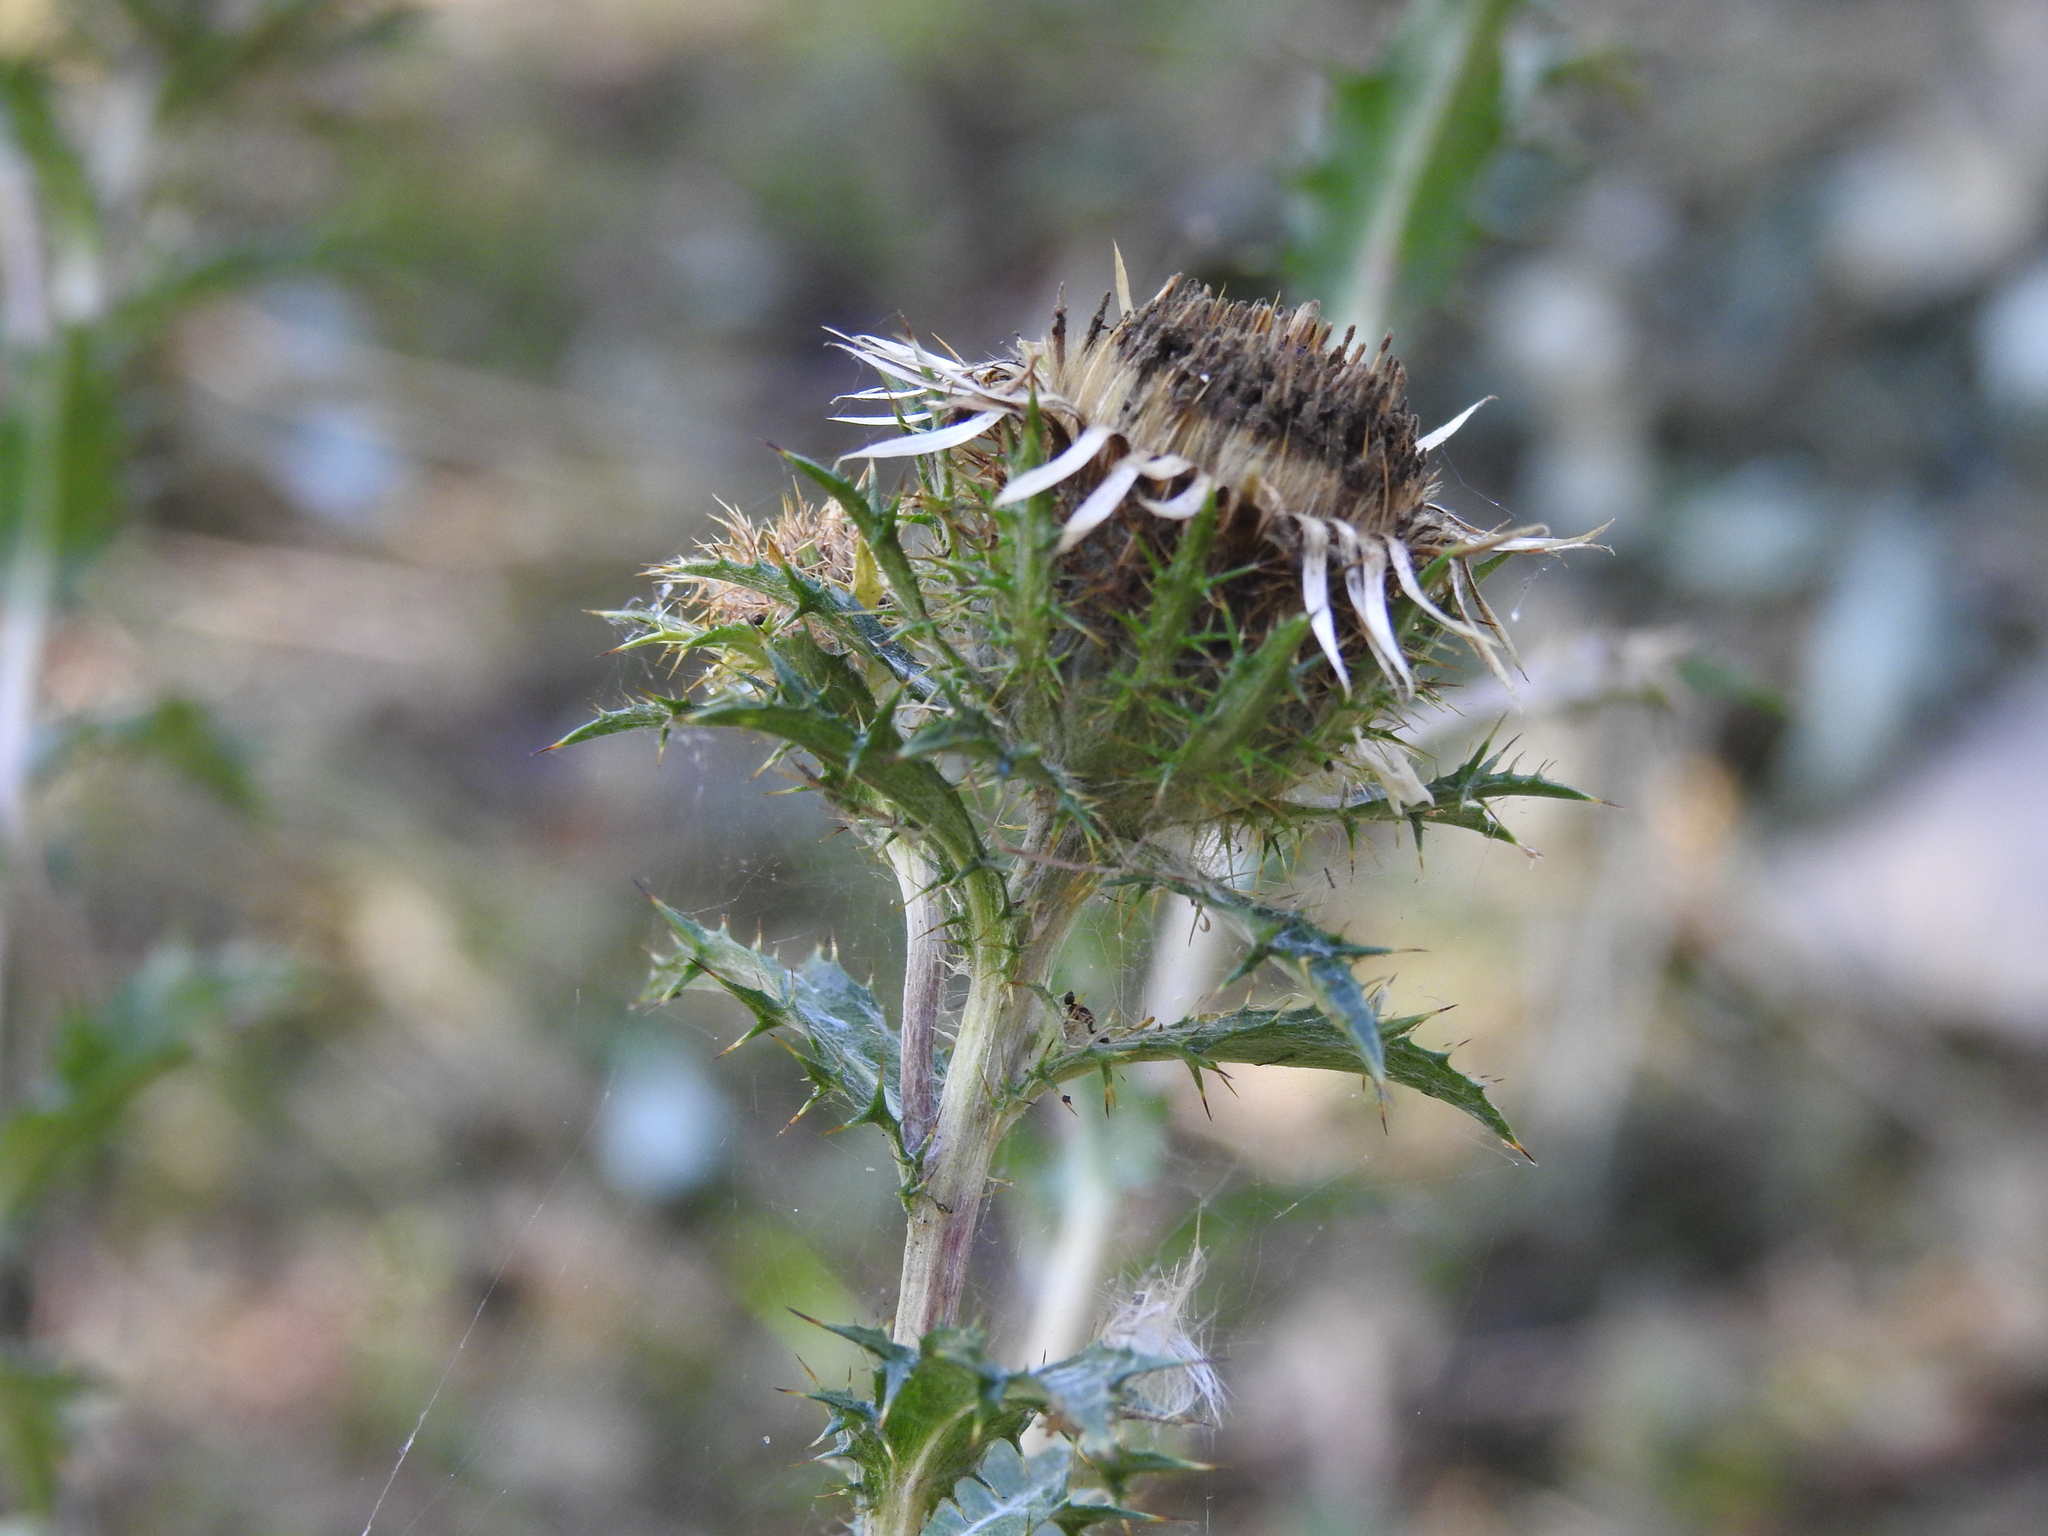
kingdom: Plantae
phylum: Tracheophyta
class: Magnoliopsida
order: Asterales
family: Asteraceae
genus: Carlina
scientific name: Carlina vulgaris
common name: Carline thistle
